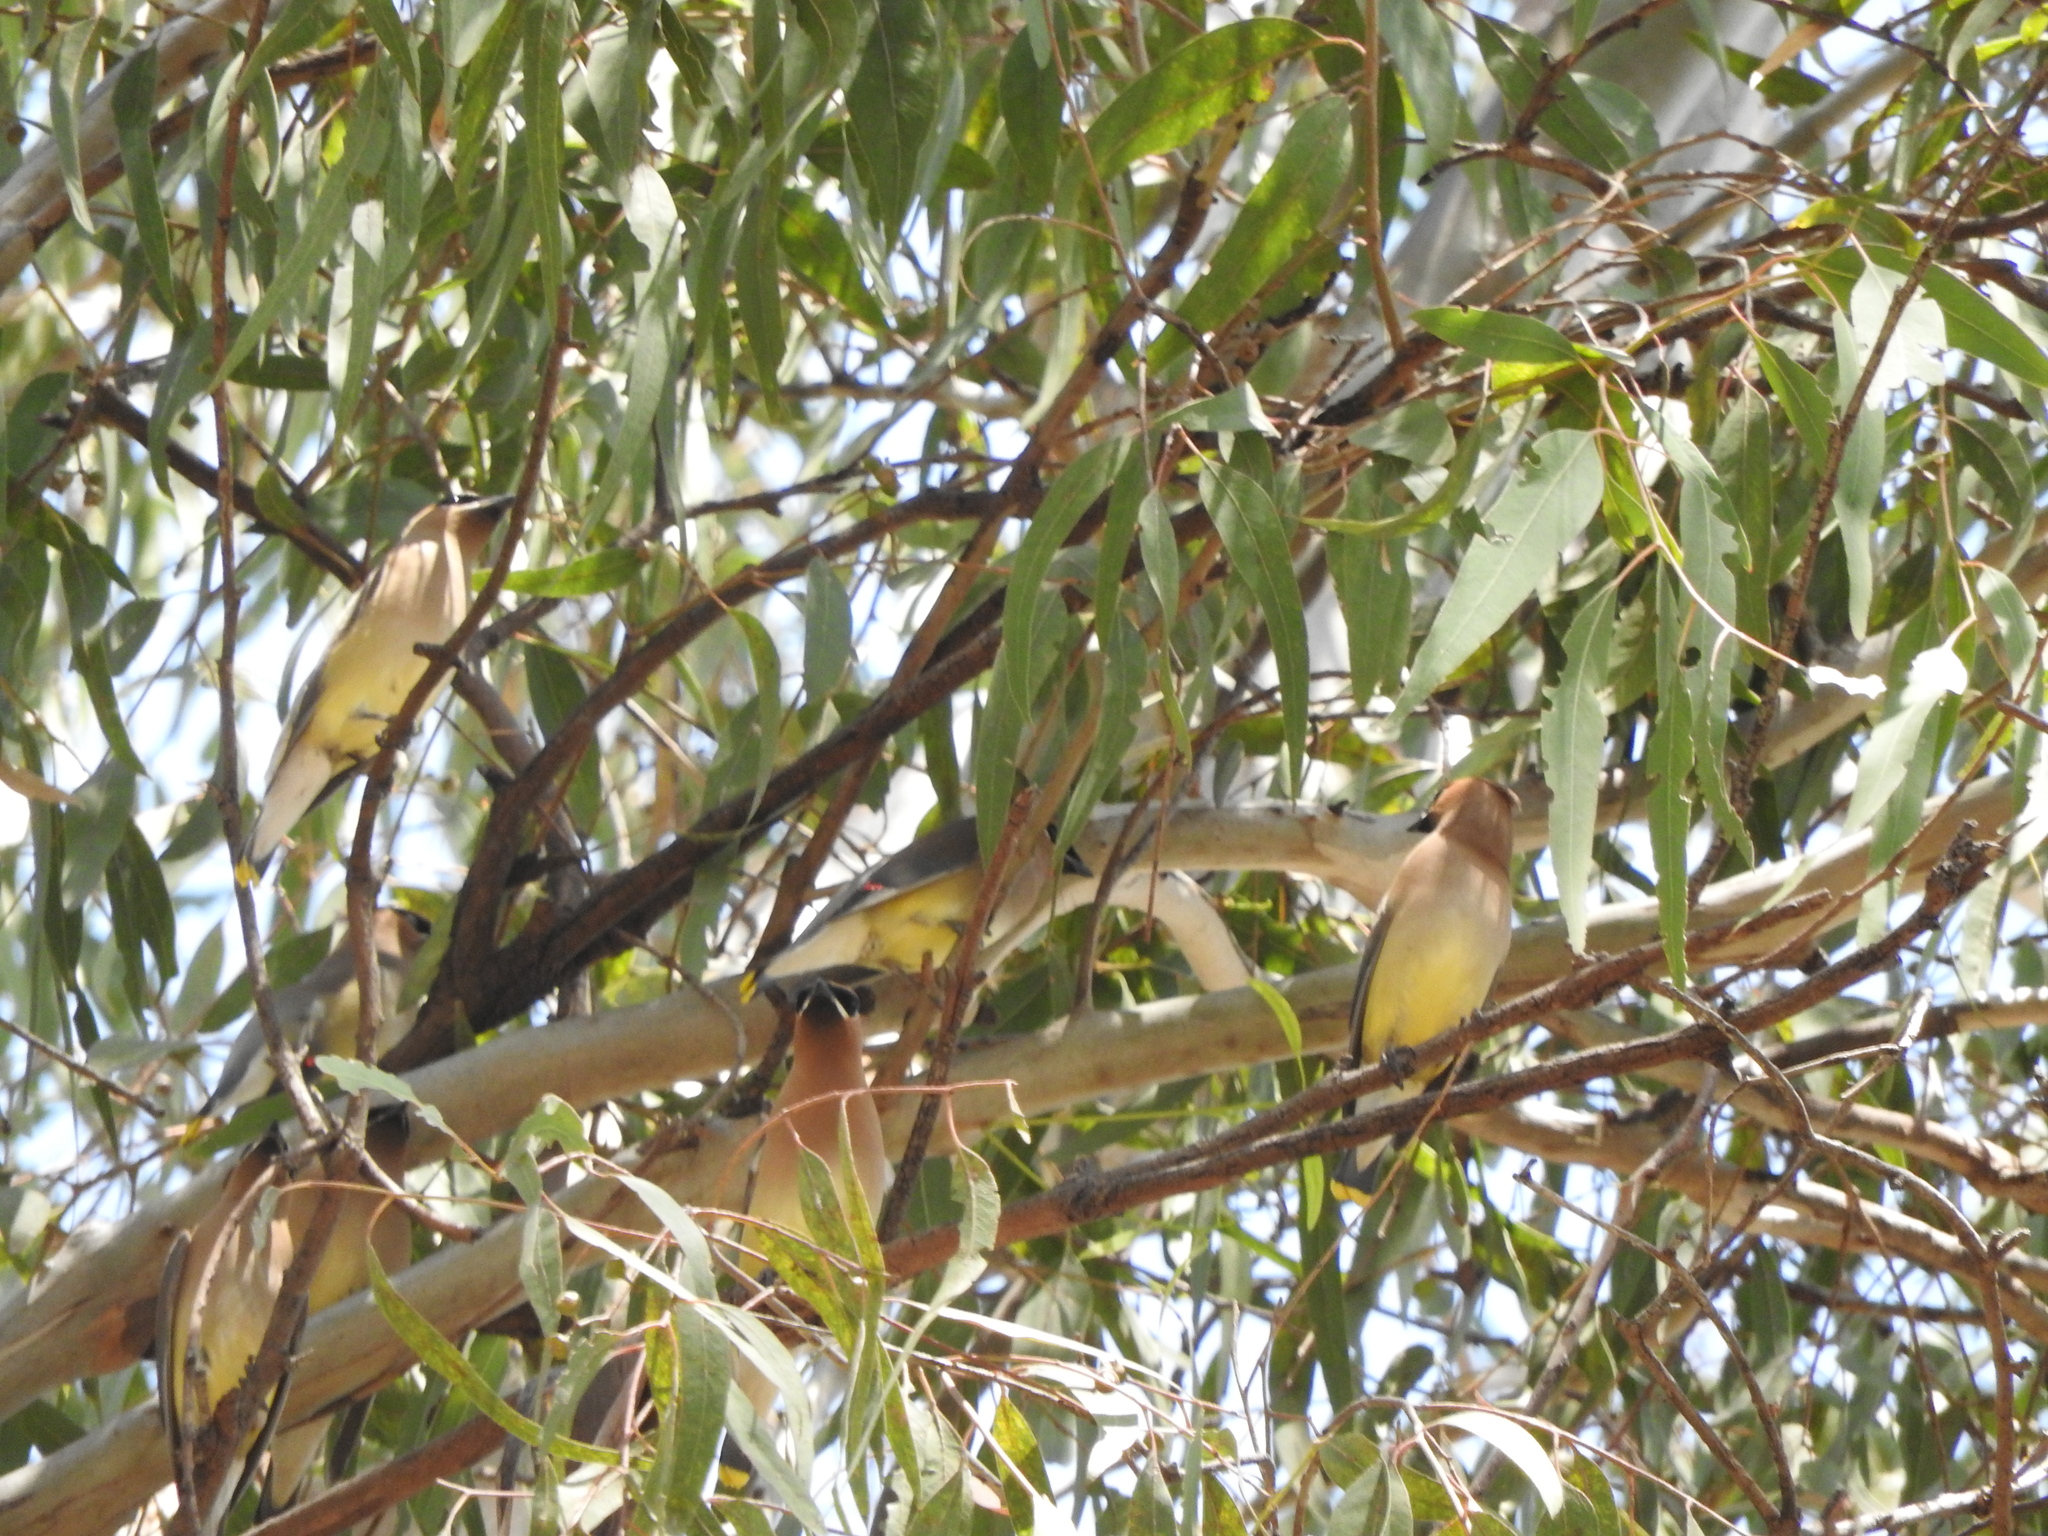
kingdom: Animalia
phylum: Chordata
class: Aves
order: Passeriformes
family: Bombycillidae
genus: Bombycilla
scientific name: Bombycilla cedrorum
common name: Cedar waxwing
